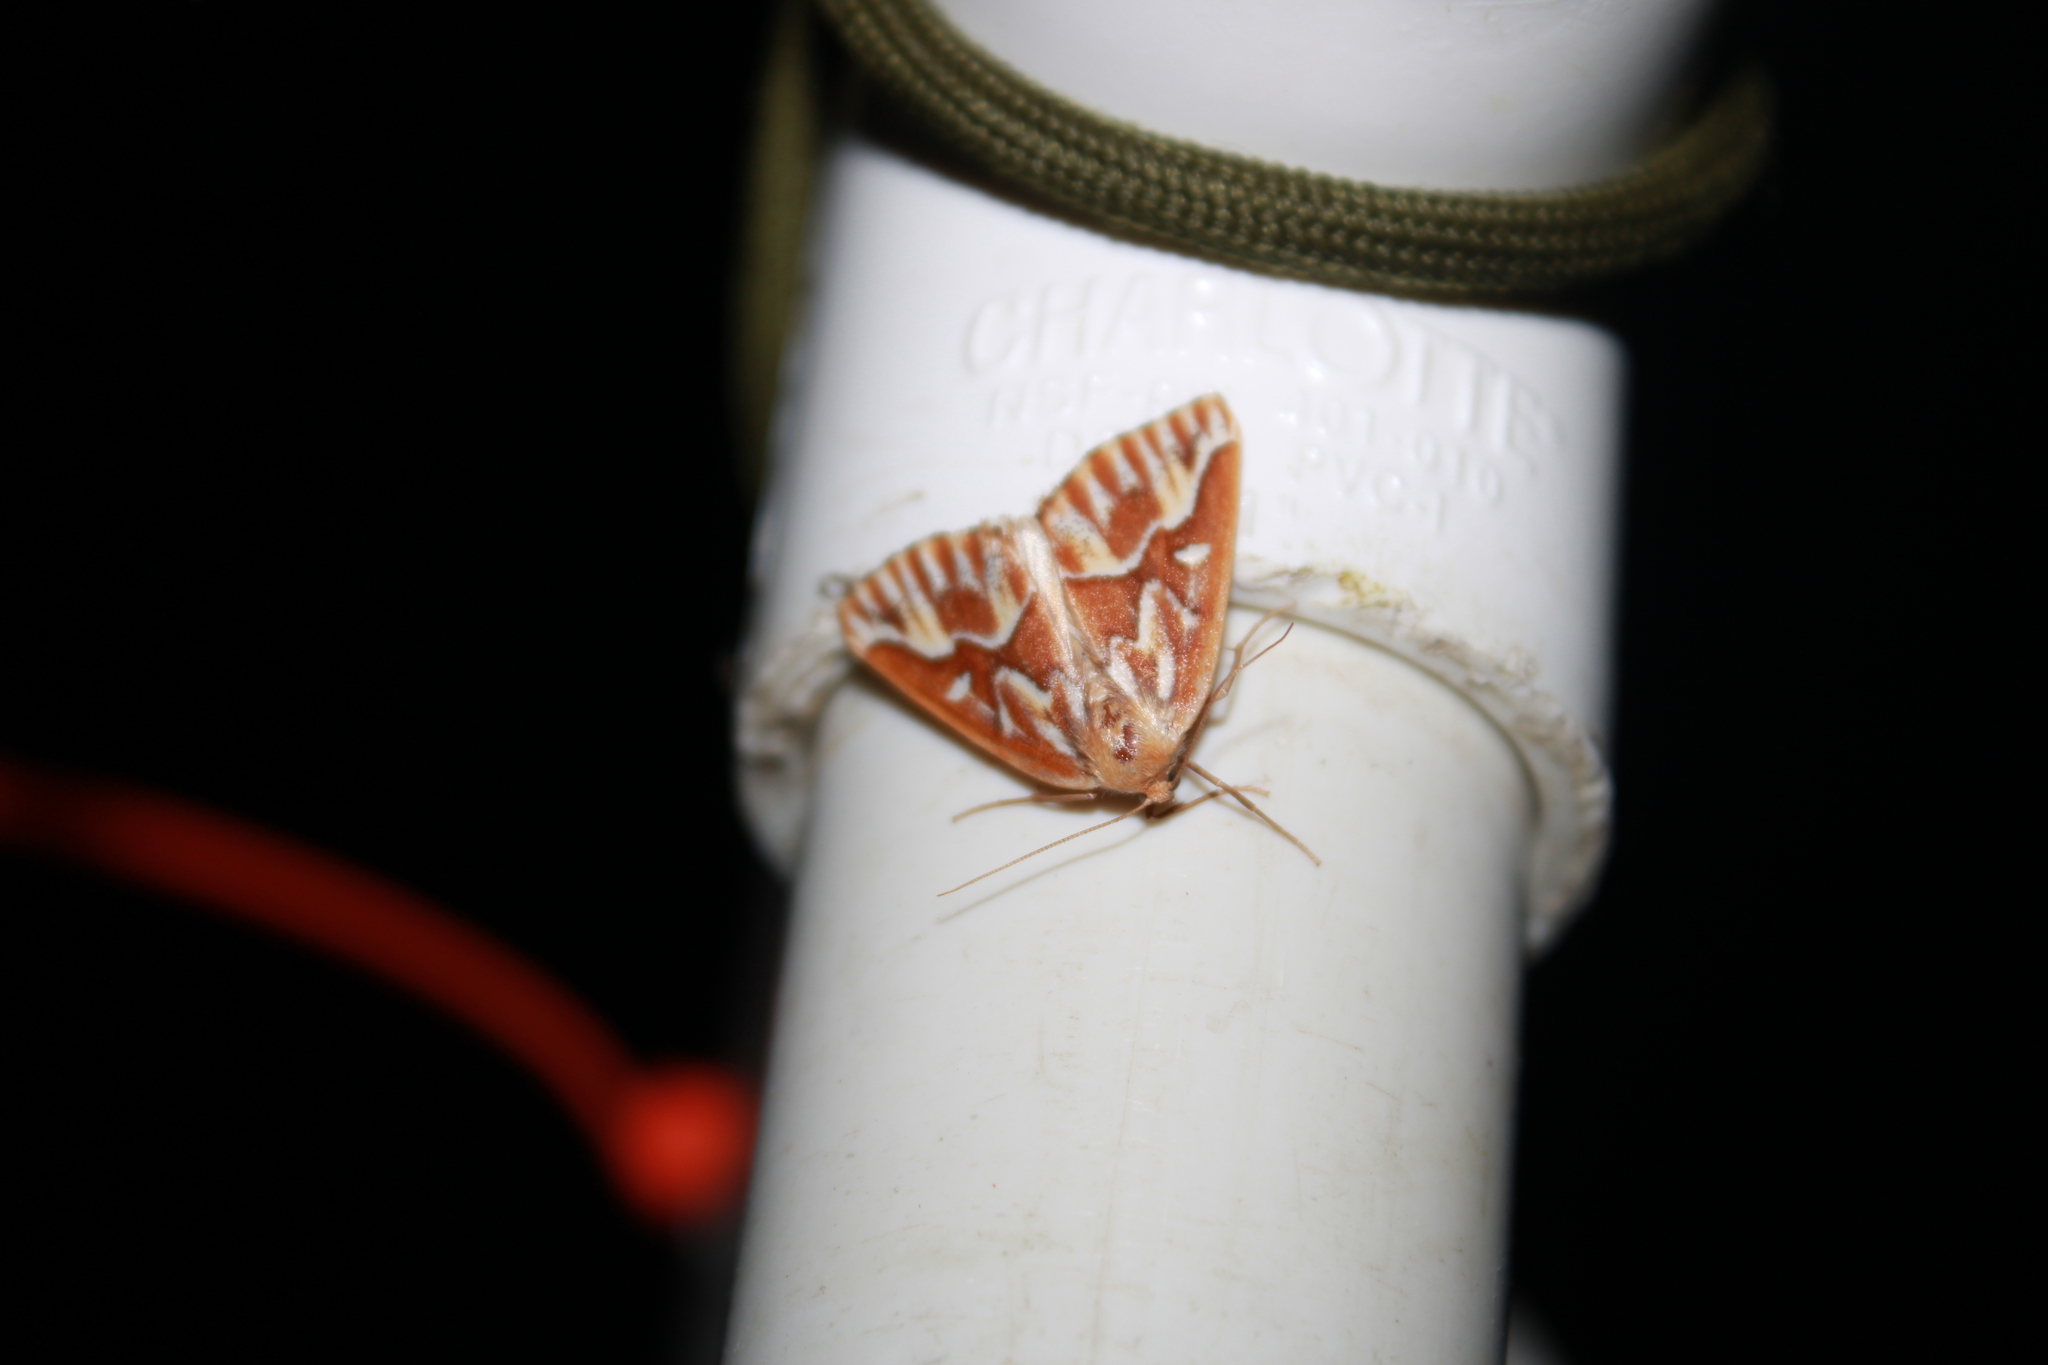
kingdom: Animalia
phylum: Arthropoda
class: Insecta
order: Lepidoptera
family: Geometridae
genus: Caripeta
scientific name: Caripeta piniata
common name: Northern pine looper moth
